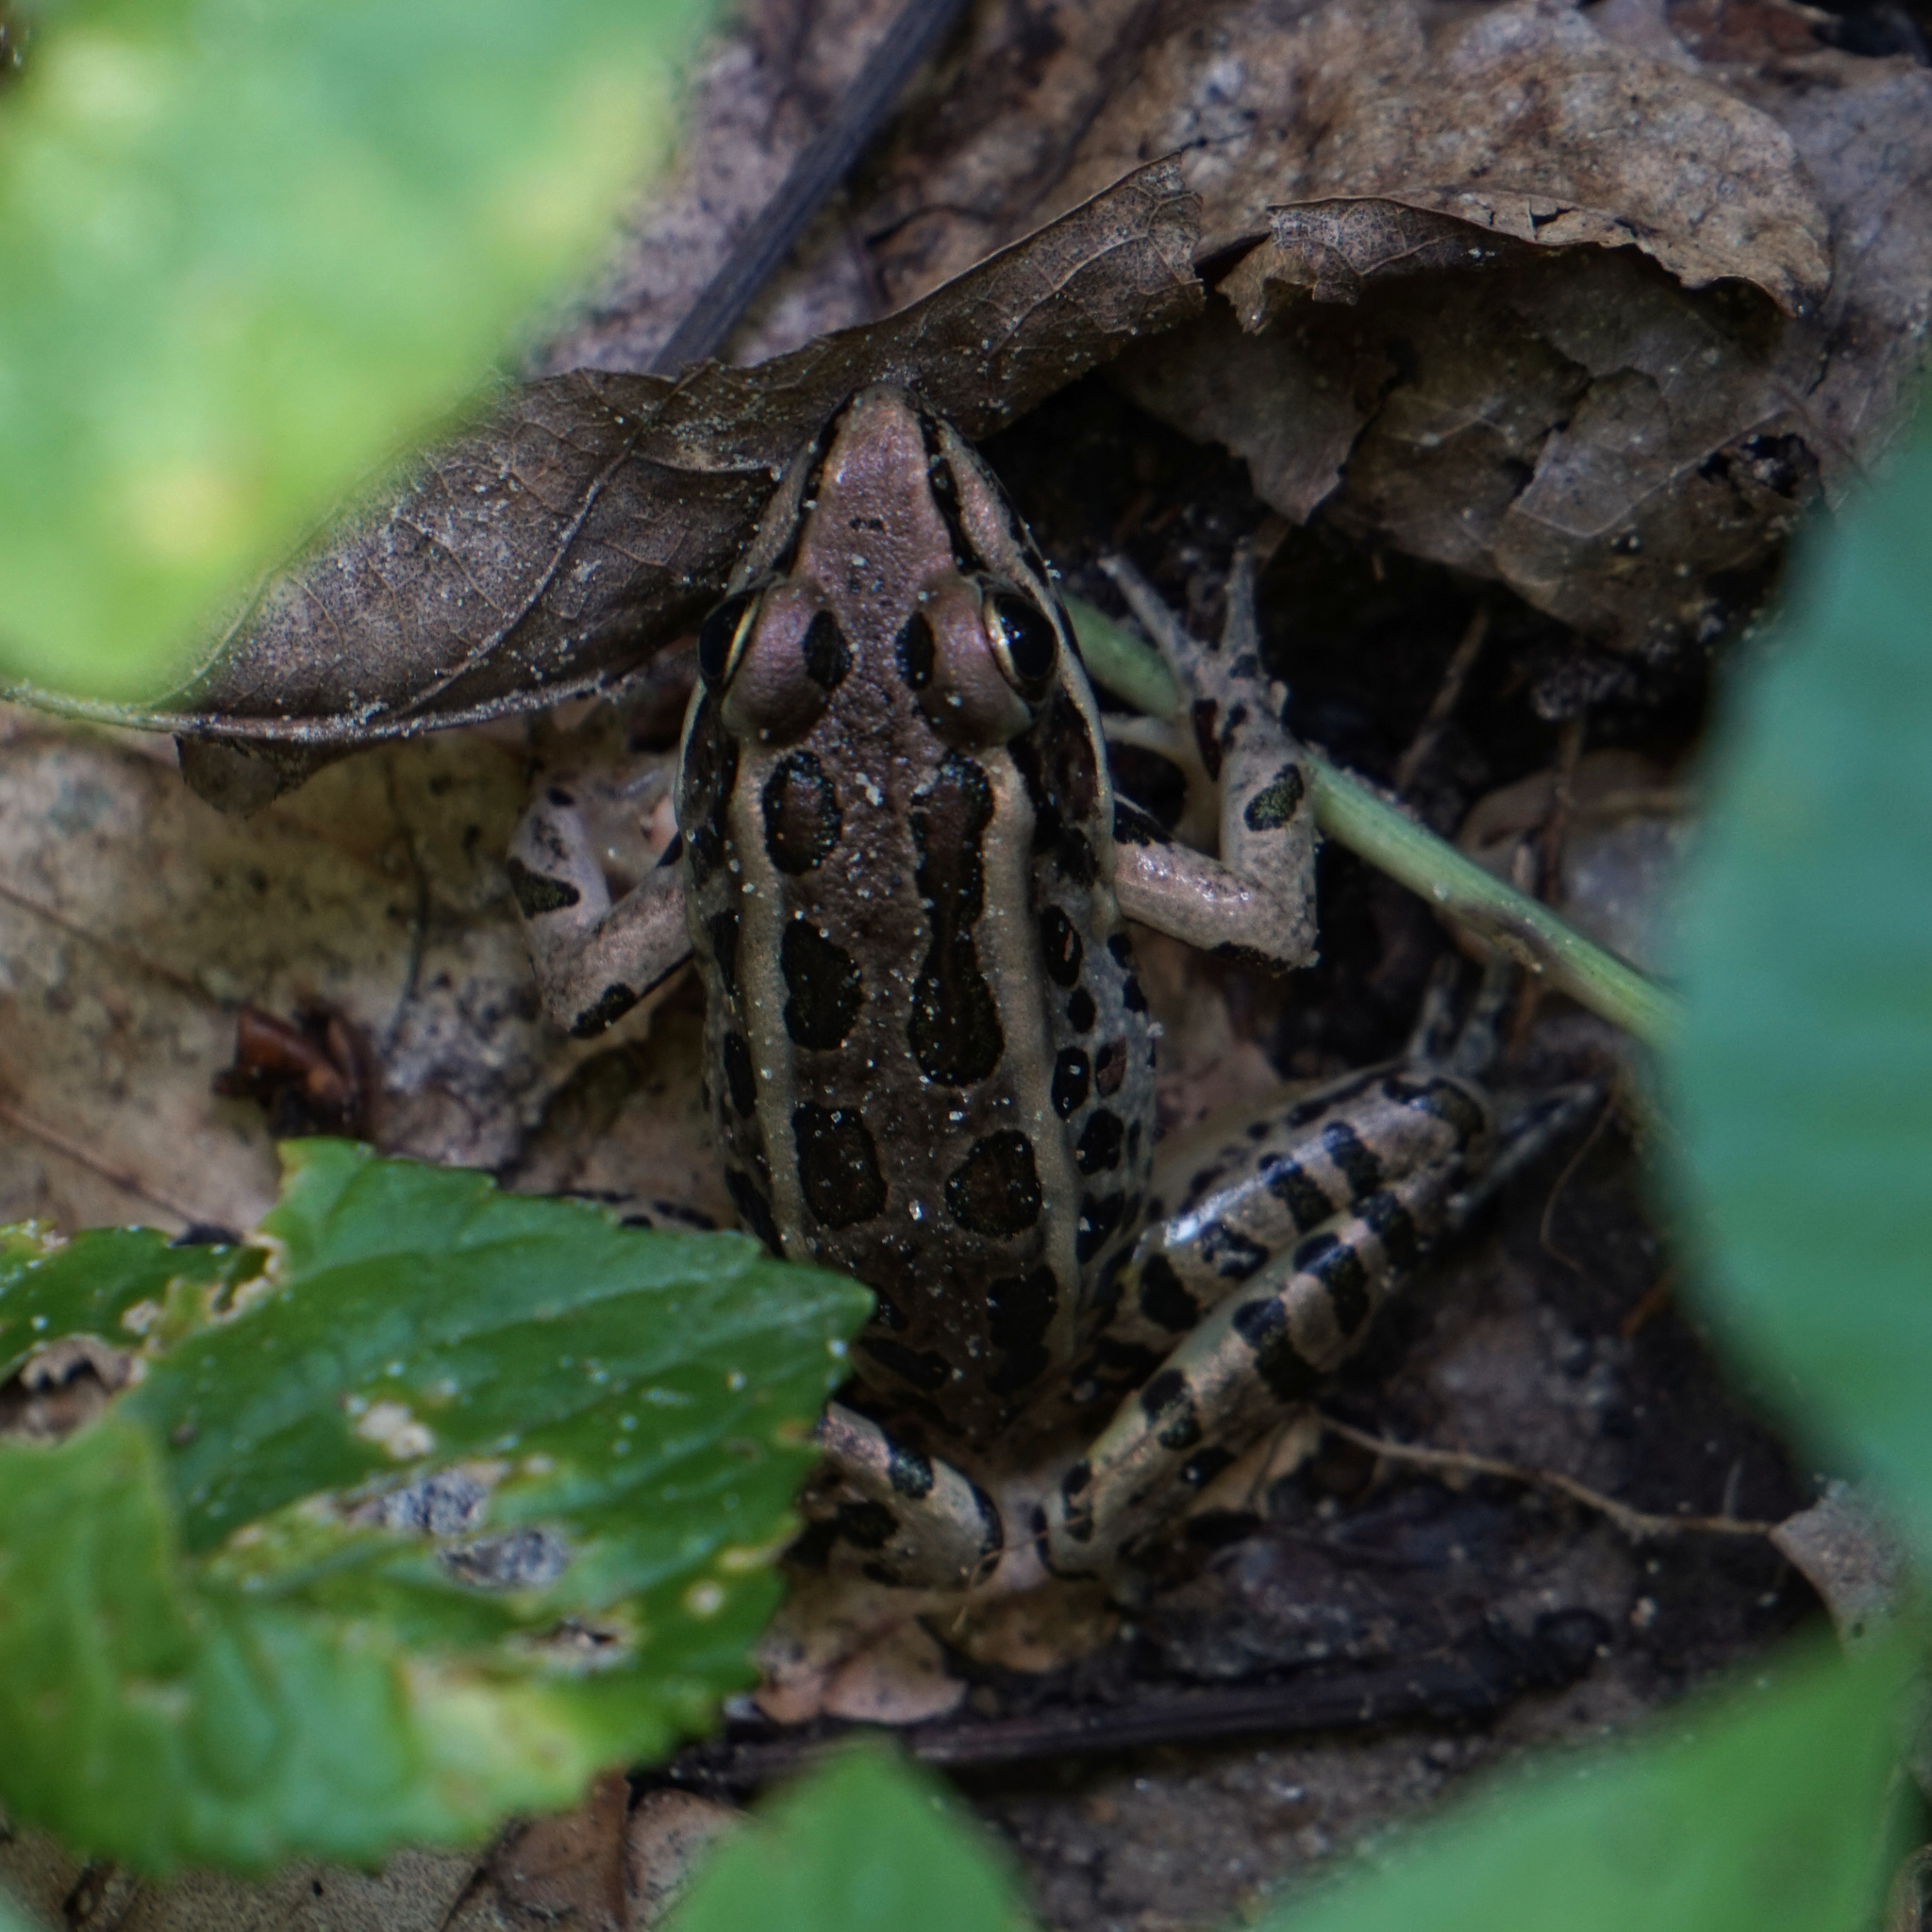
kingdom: Animalia
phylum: Chordata
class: Amphibia
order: Anura
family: Ranidae
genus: Lithobates
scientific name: Lithobates palustris
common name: Pickerel frog
